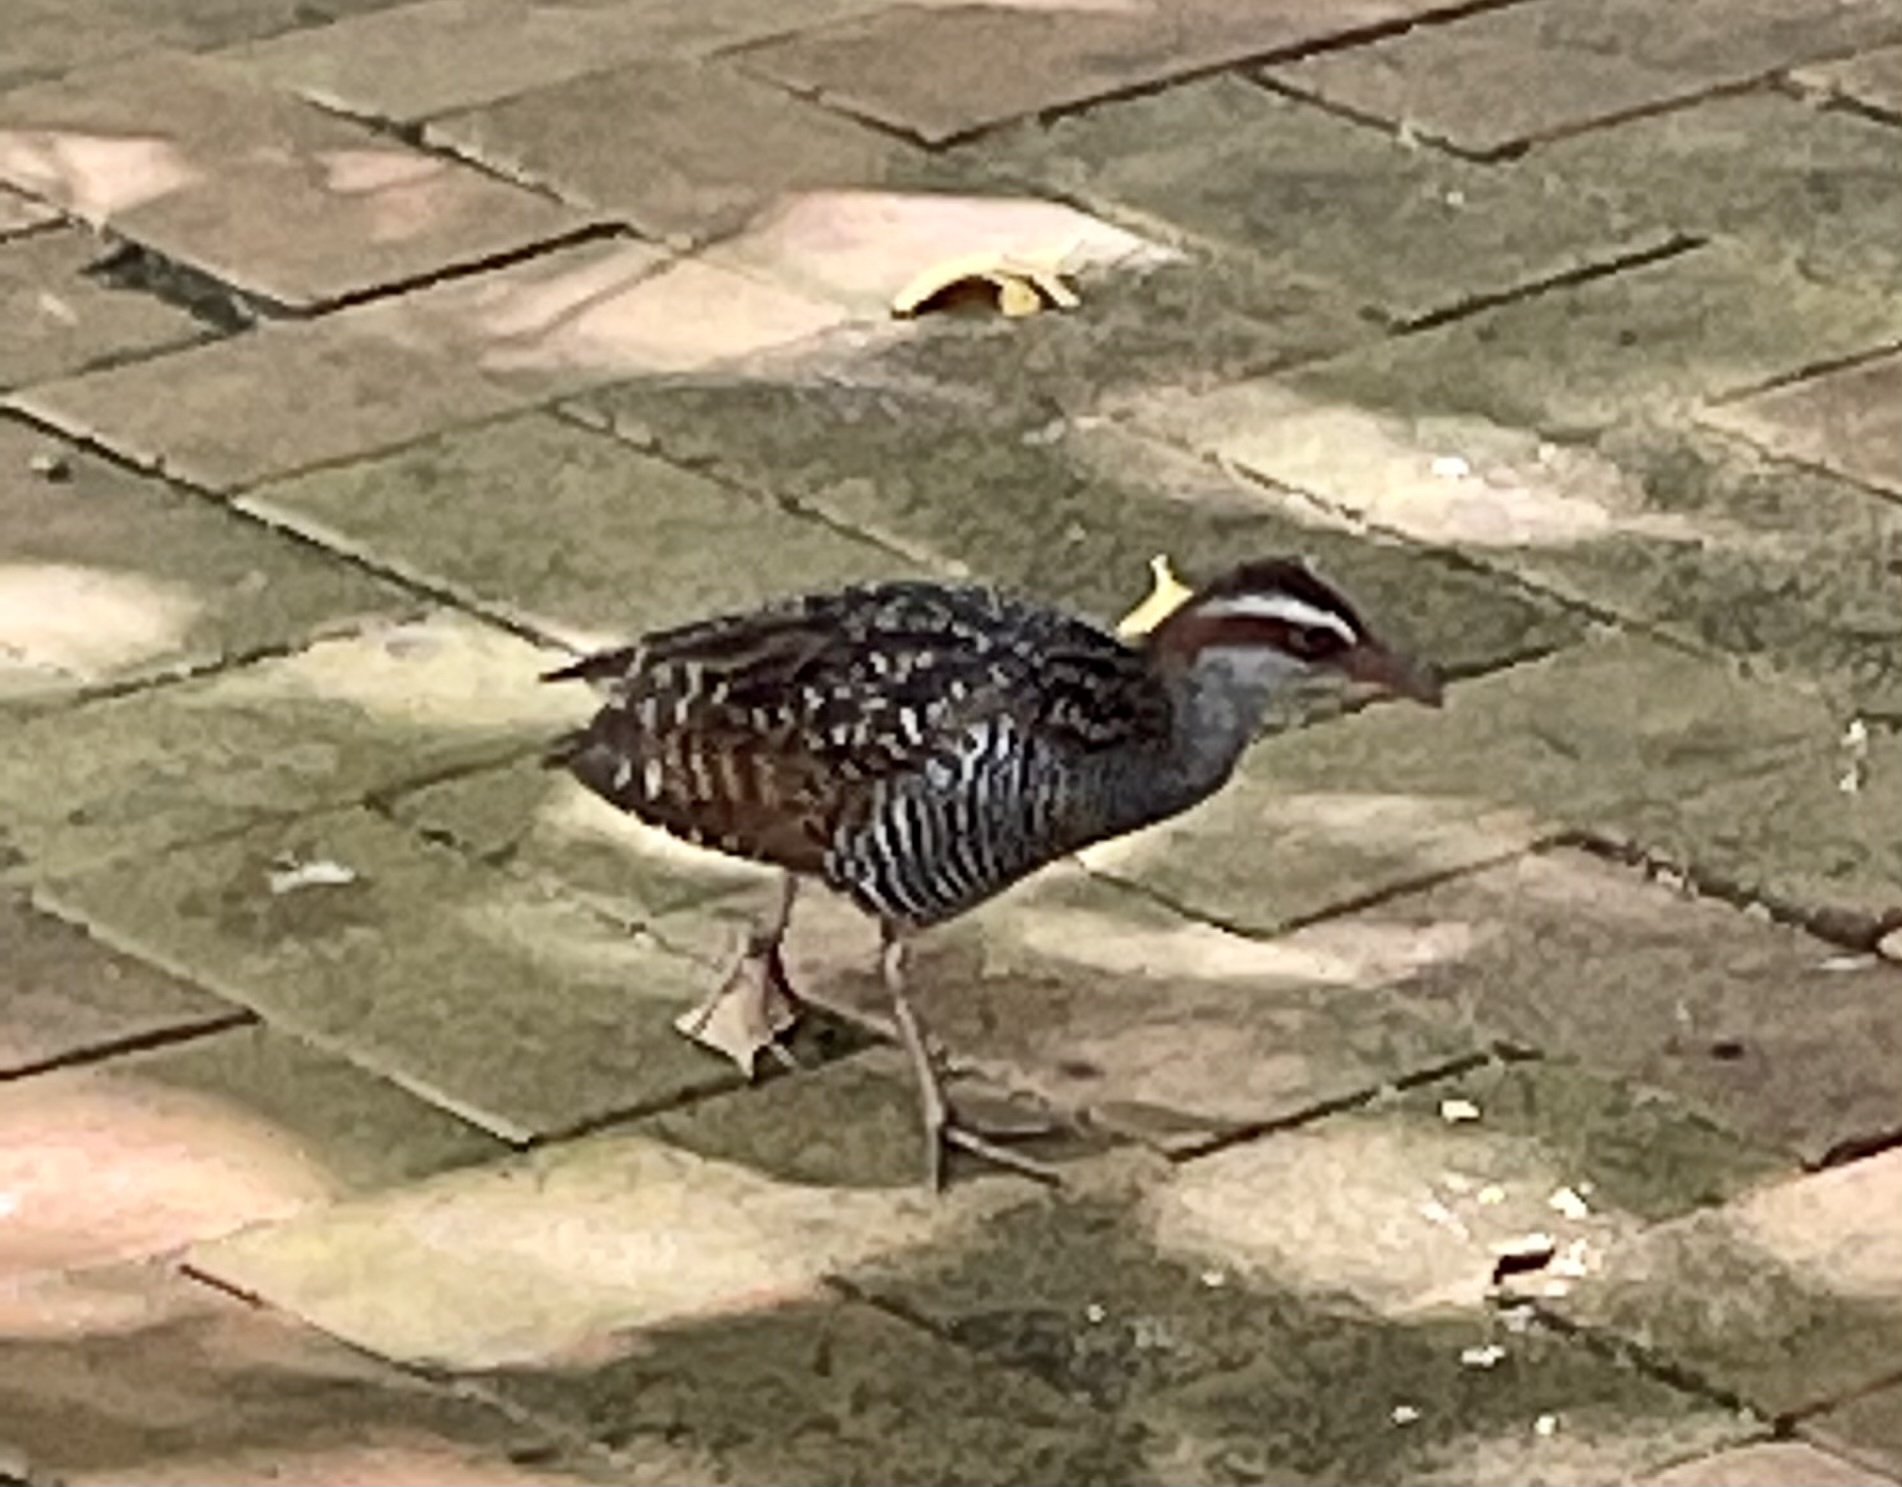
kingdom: Animalia
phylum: Chordata
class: Aves
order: Gruiformes
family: Rallidae
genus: Gallirallus
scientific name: Gallirallus philippensis
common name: Buff-banded rail
